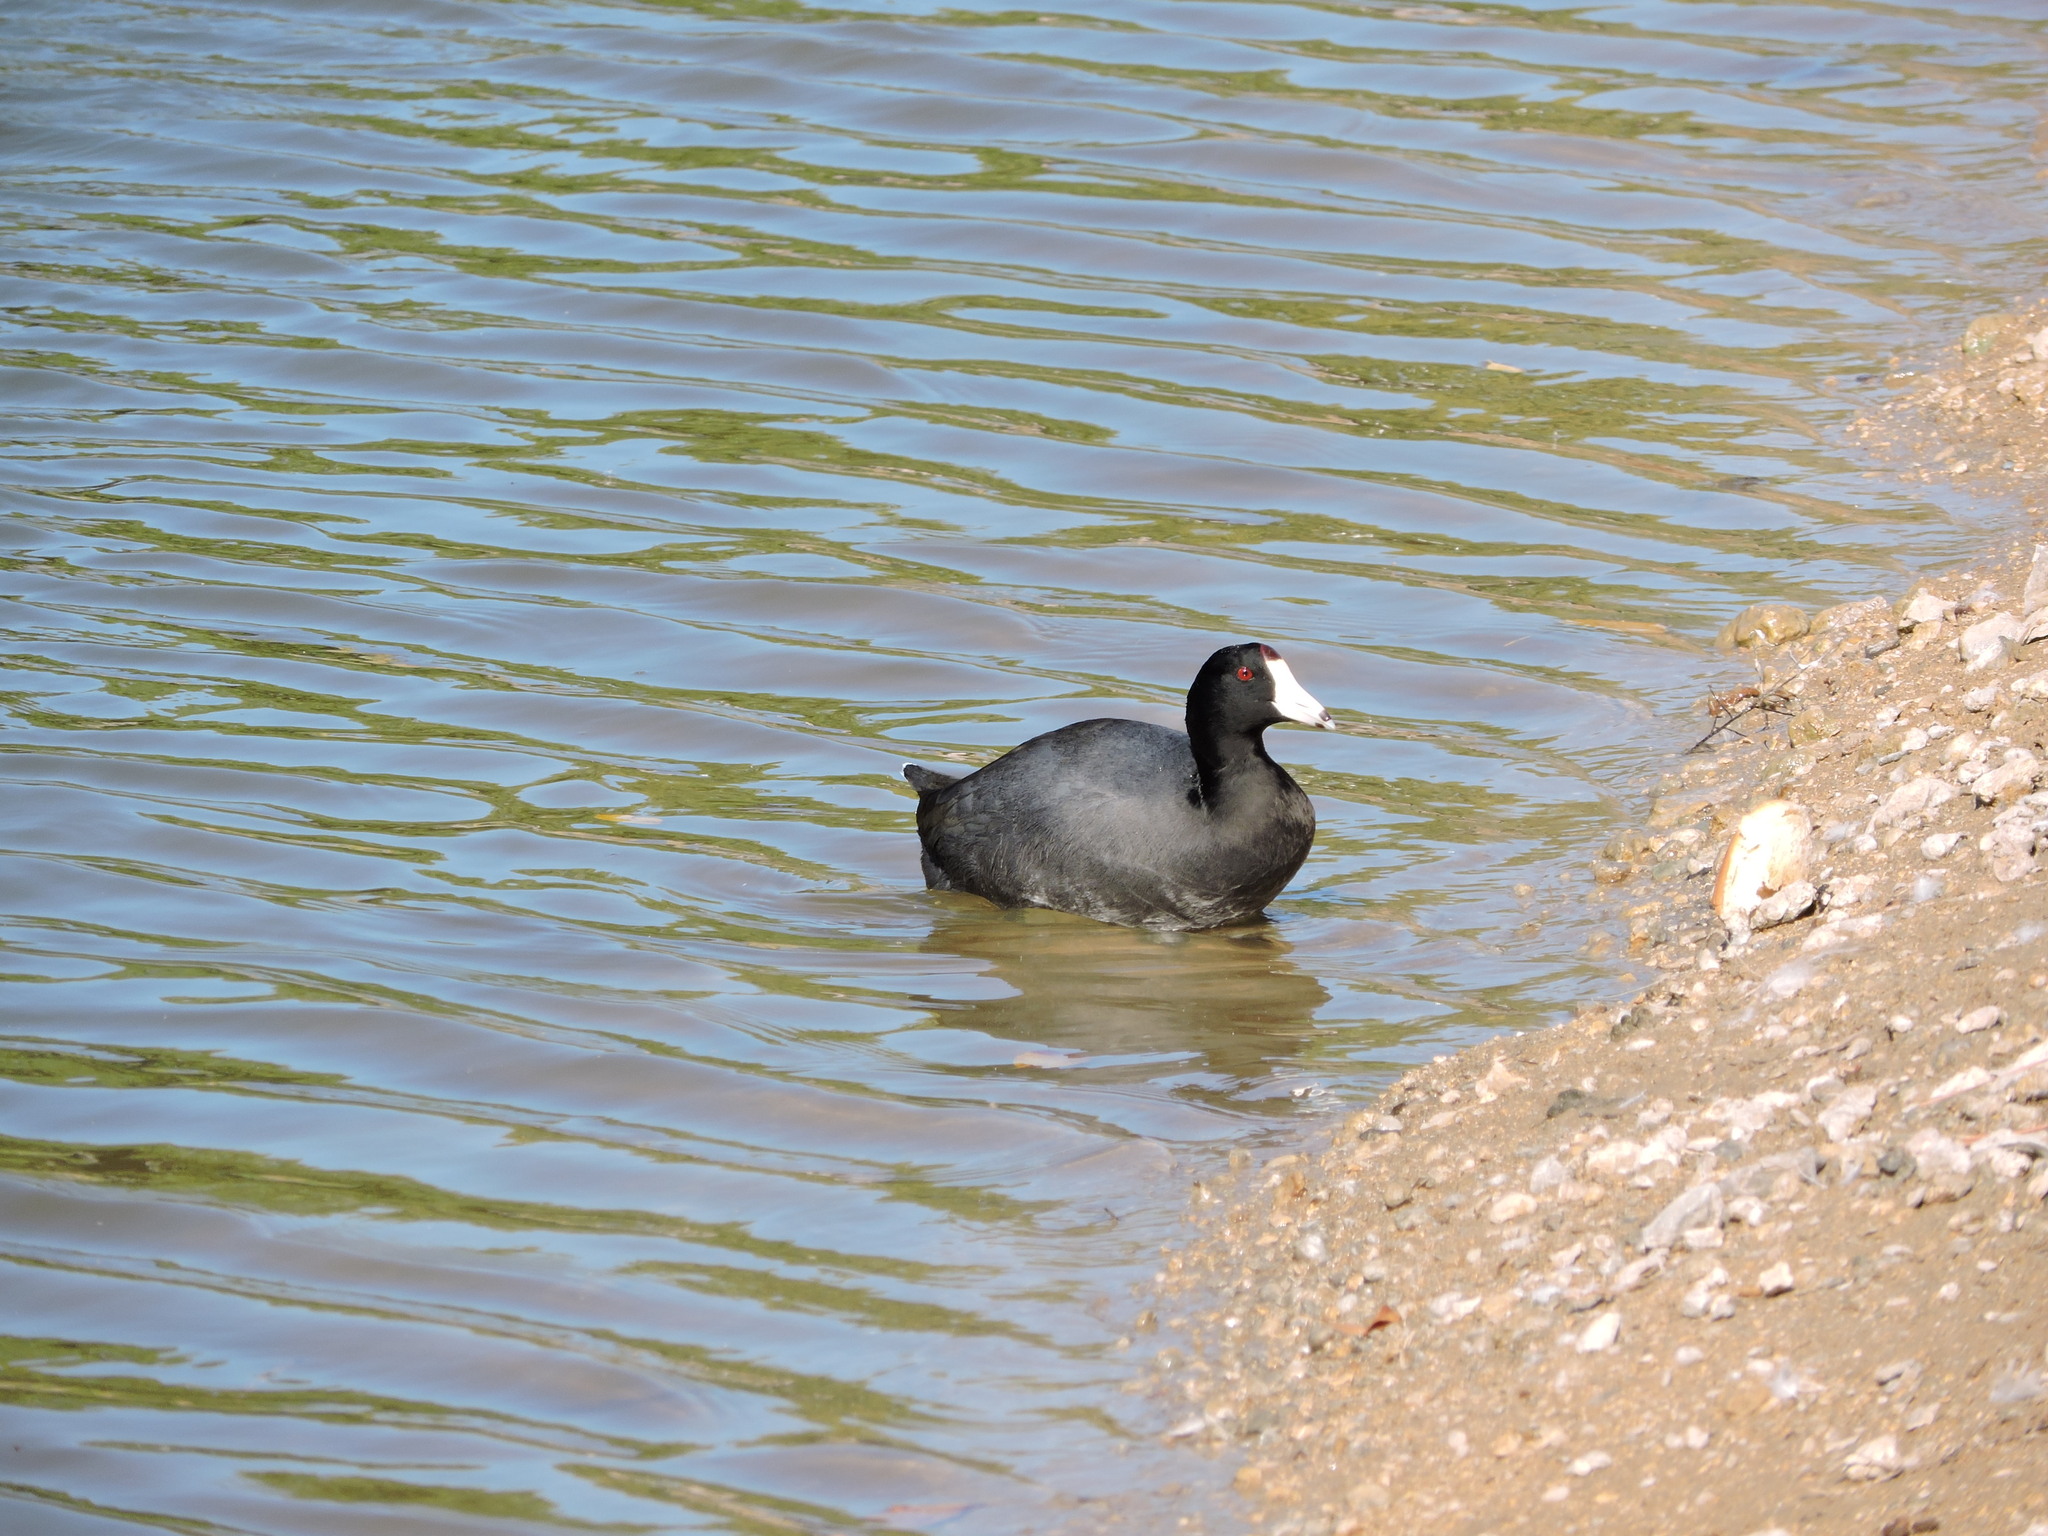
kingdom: Animalia
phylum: Chordata
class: Aves
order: Gruiformes
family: Rallidae
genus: Fulica
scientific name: Fulica americana
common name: American coot
